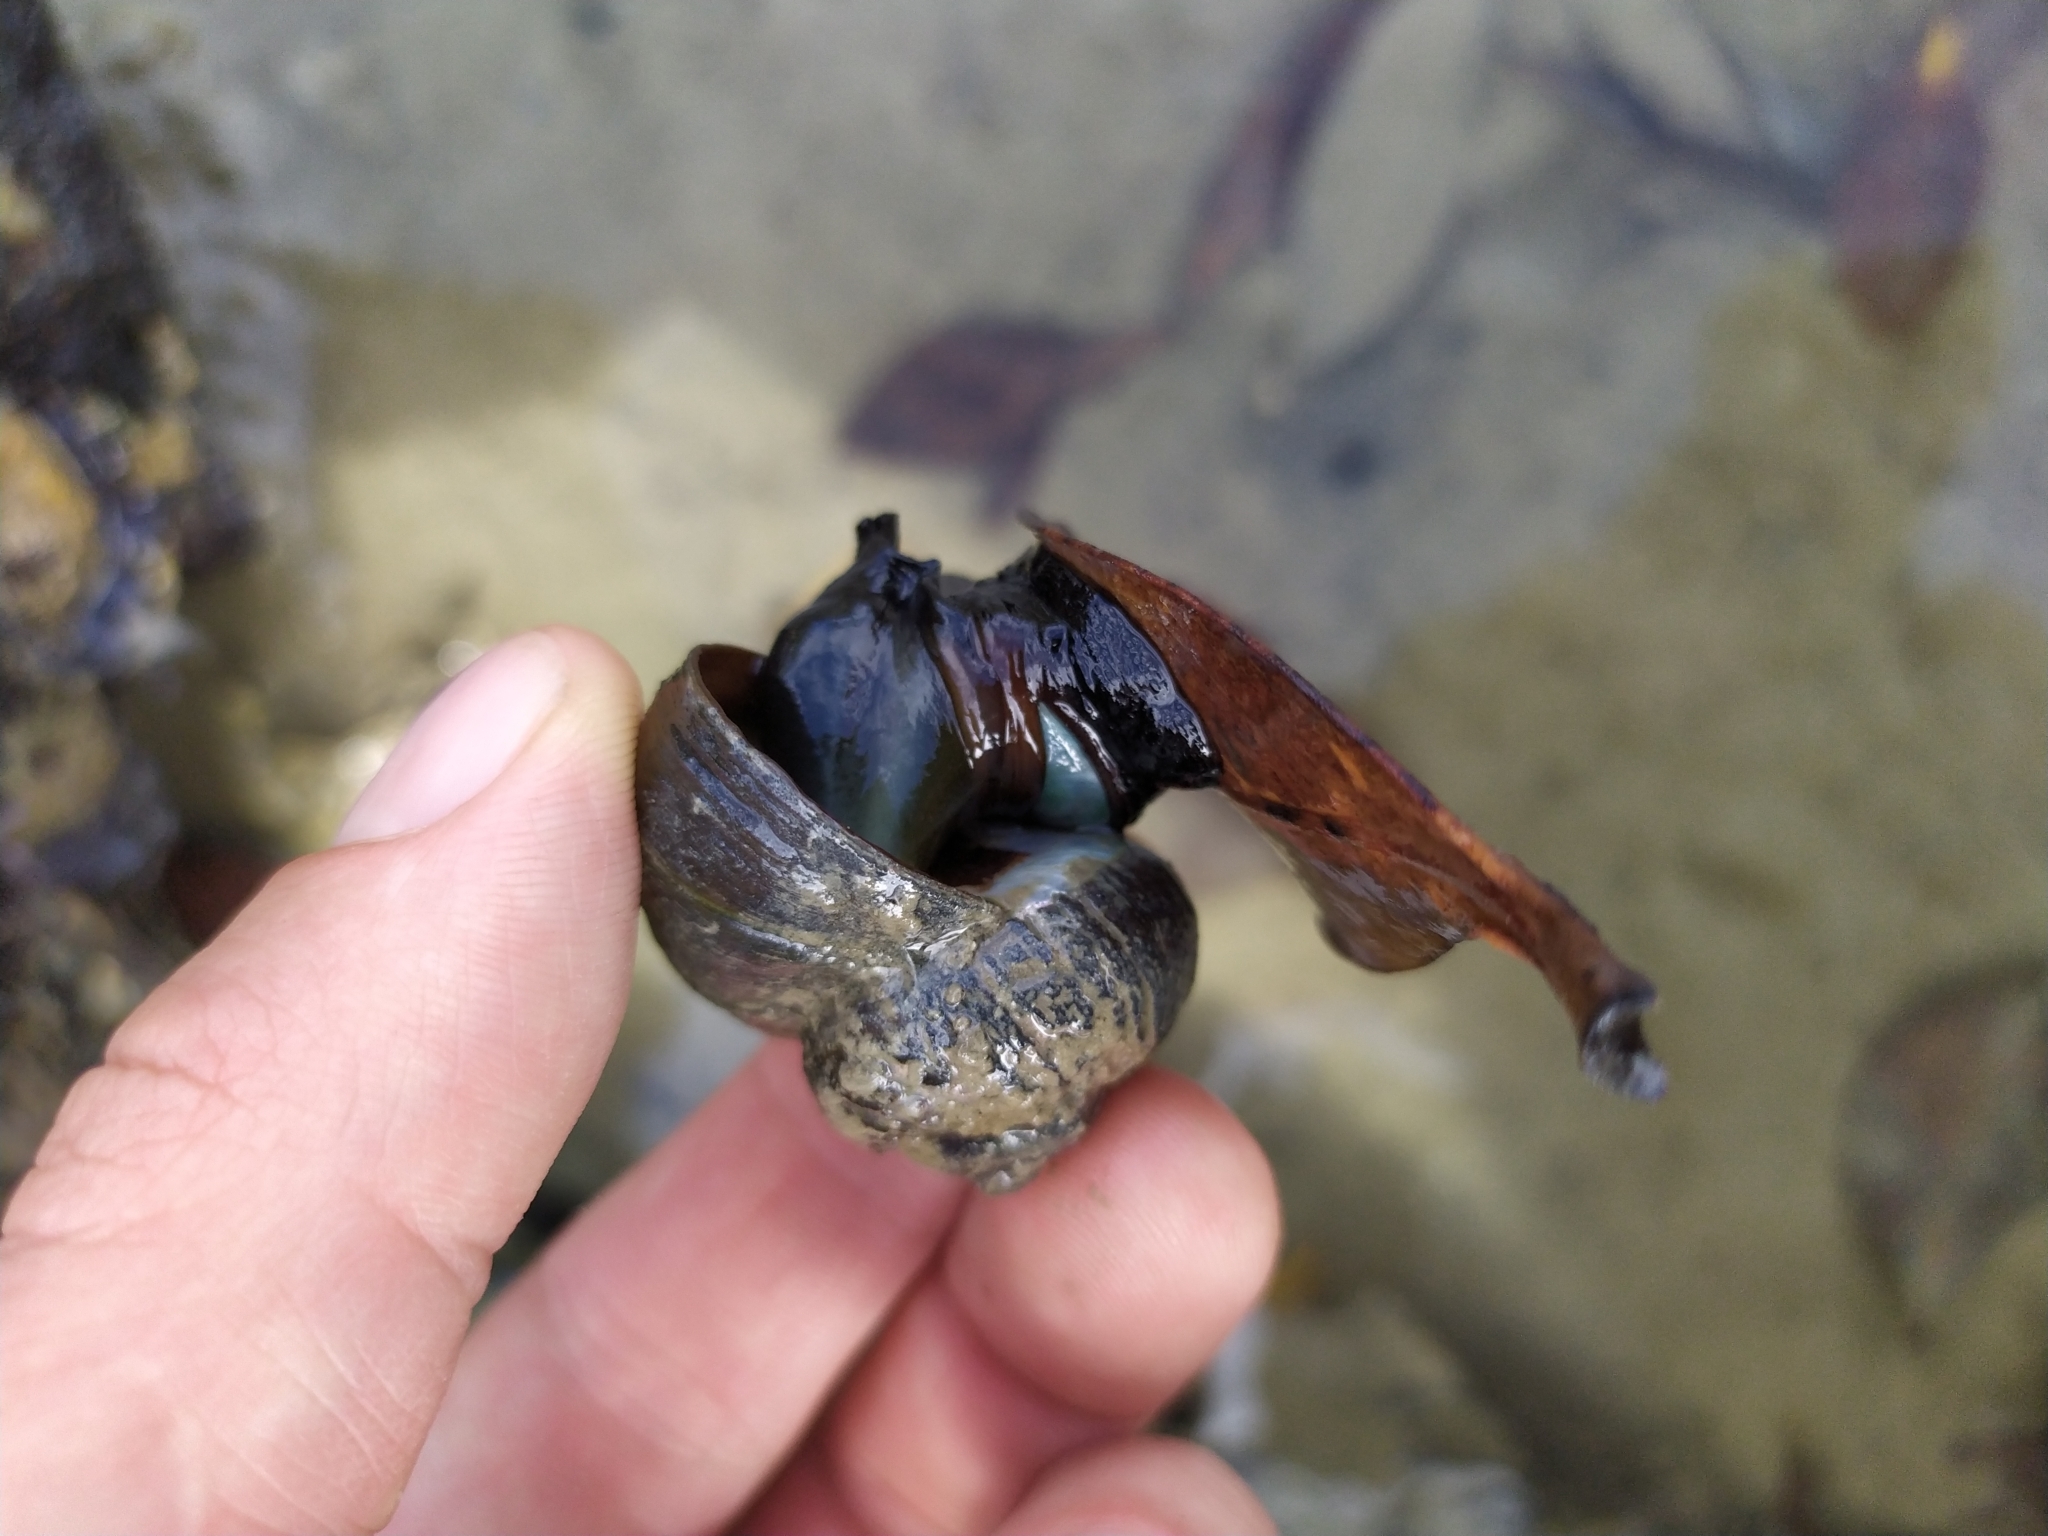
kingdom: Animalia
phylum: Mollusca
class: Gastropoda
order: Trochida
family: Turbinidae
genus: Lunella
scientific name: Lunella smaragda
